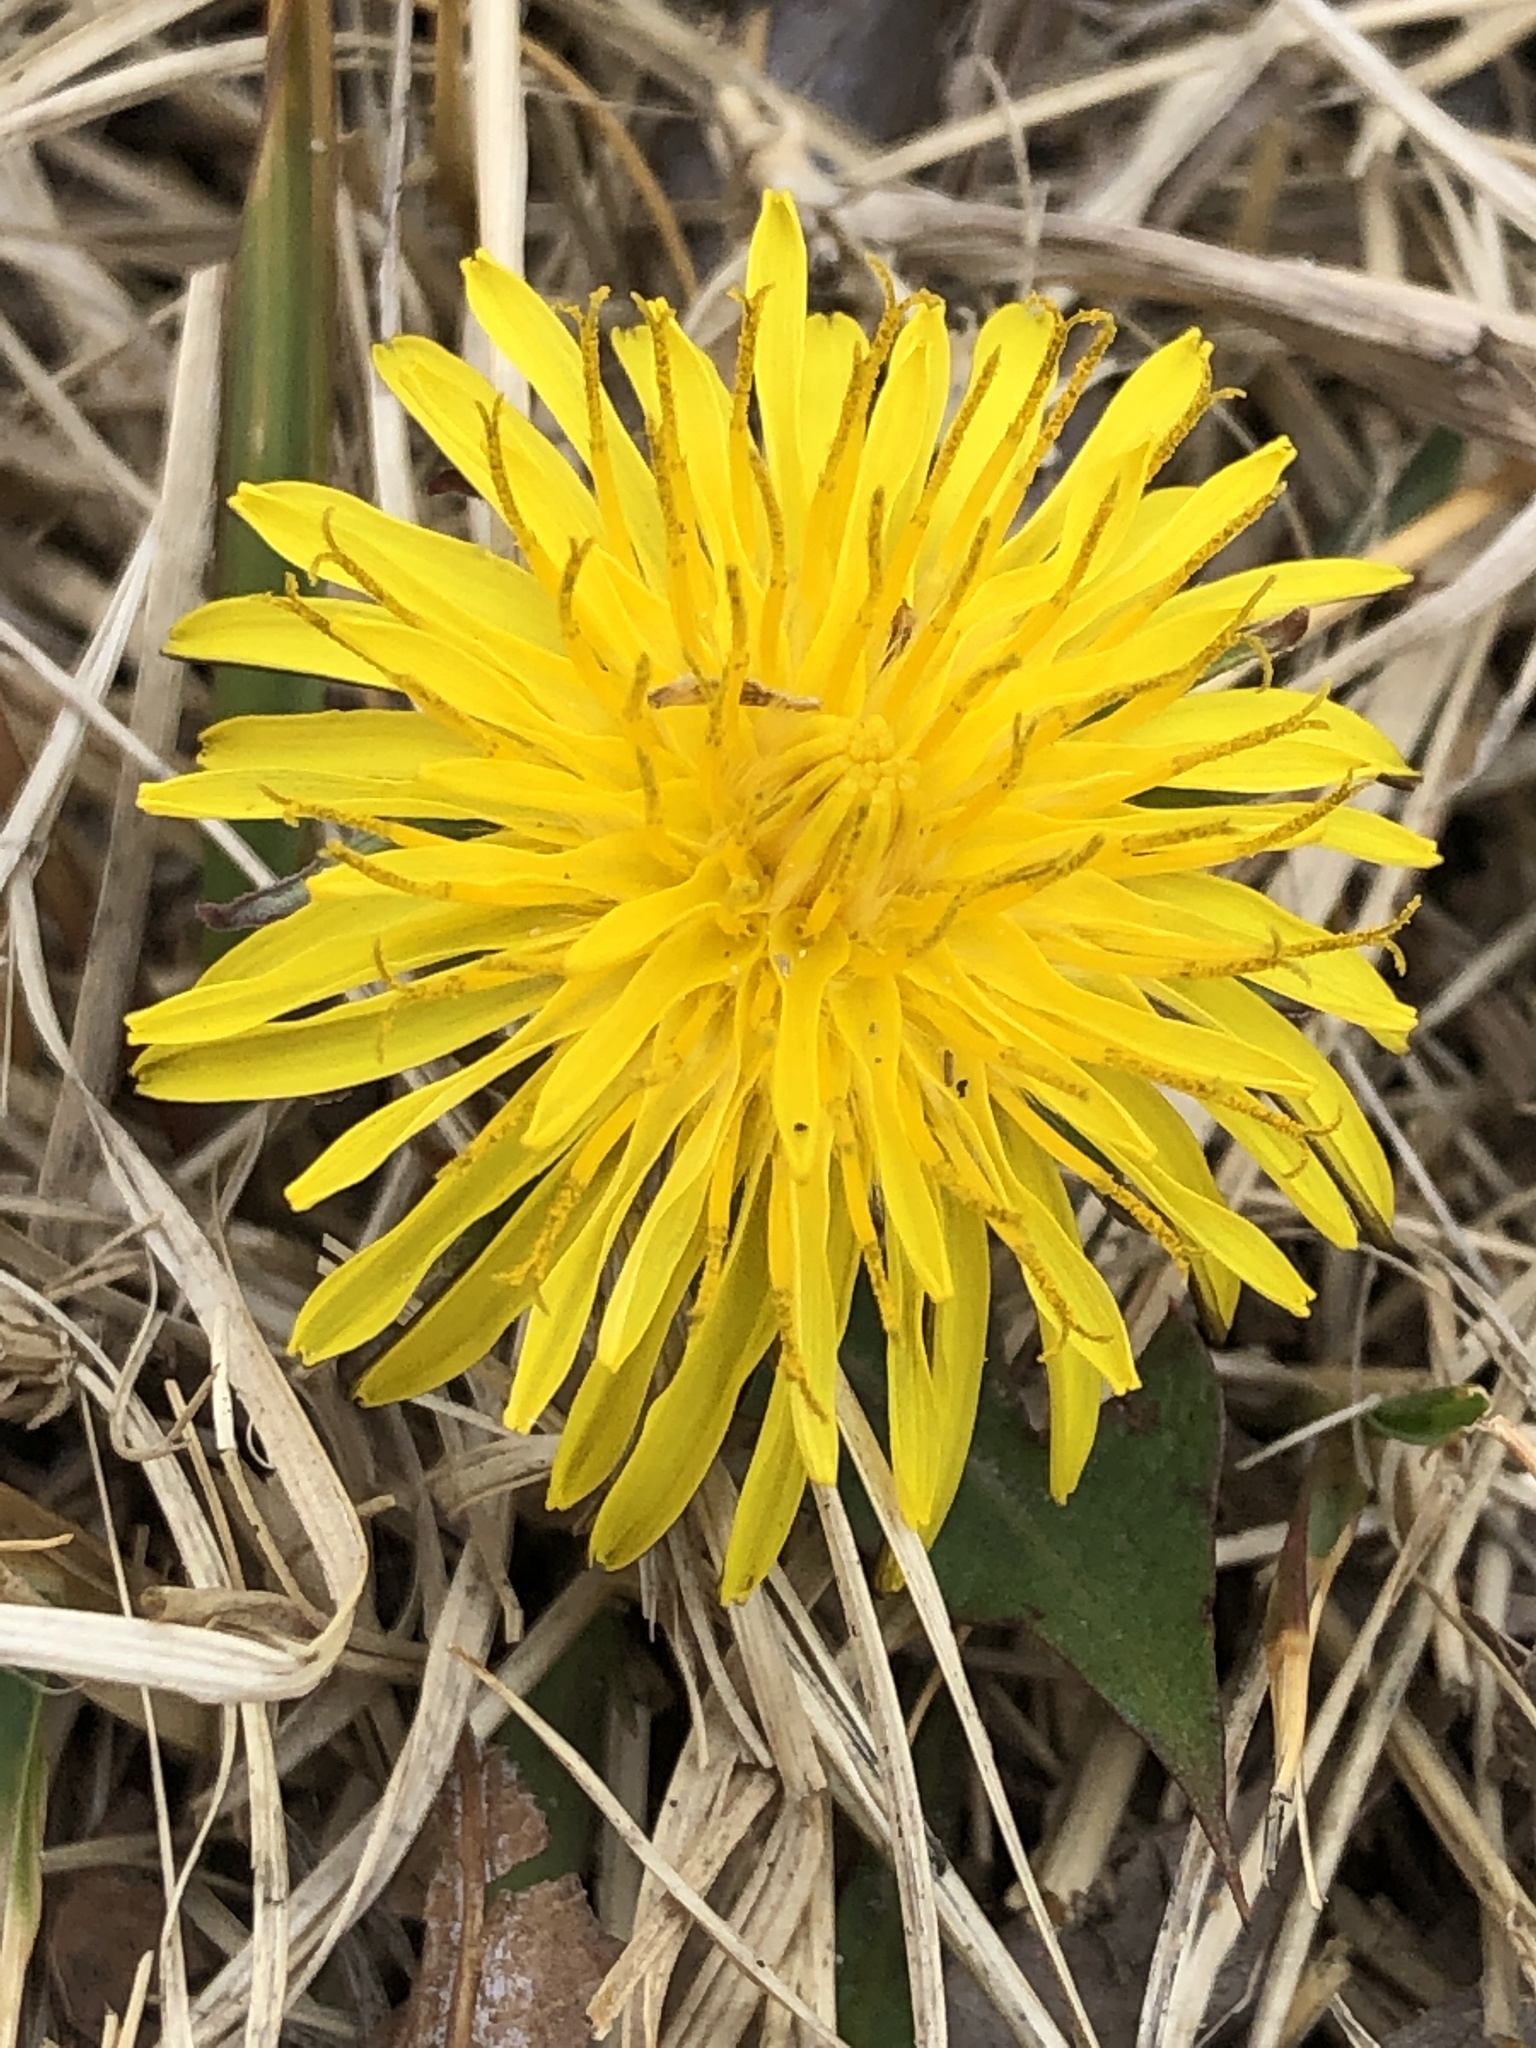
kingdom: Plantae
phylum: Tracheophyta
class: Magnoliopsida
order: Asterales
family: Asteraceae
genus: Taraxacum
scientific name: Taraxacum officinale
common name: Common dandelion
